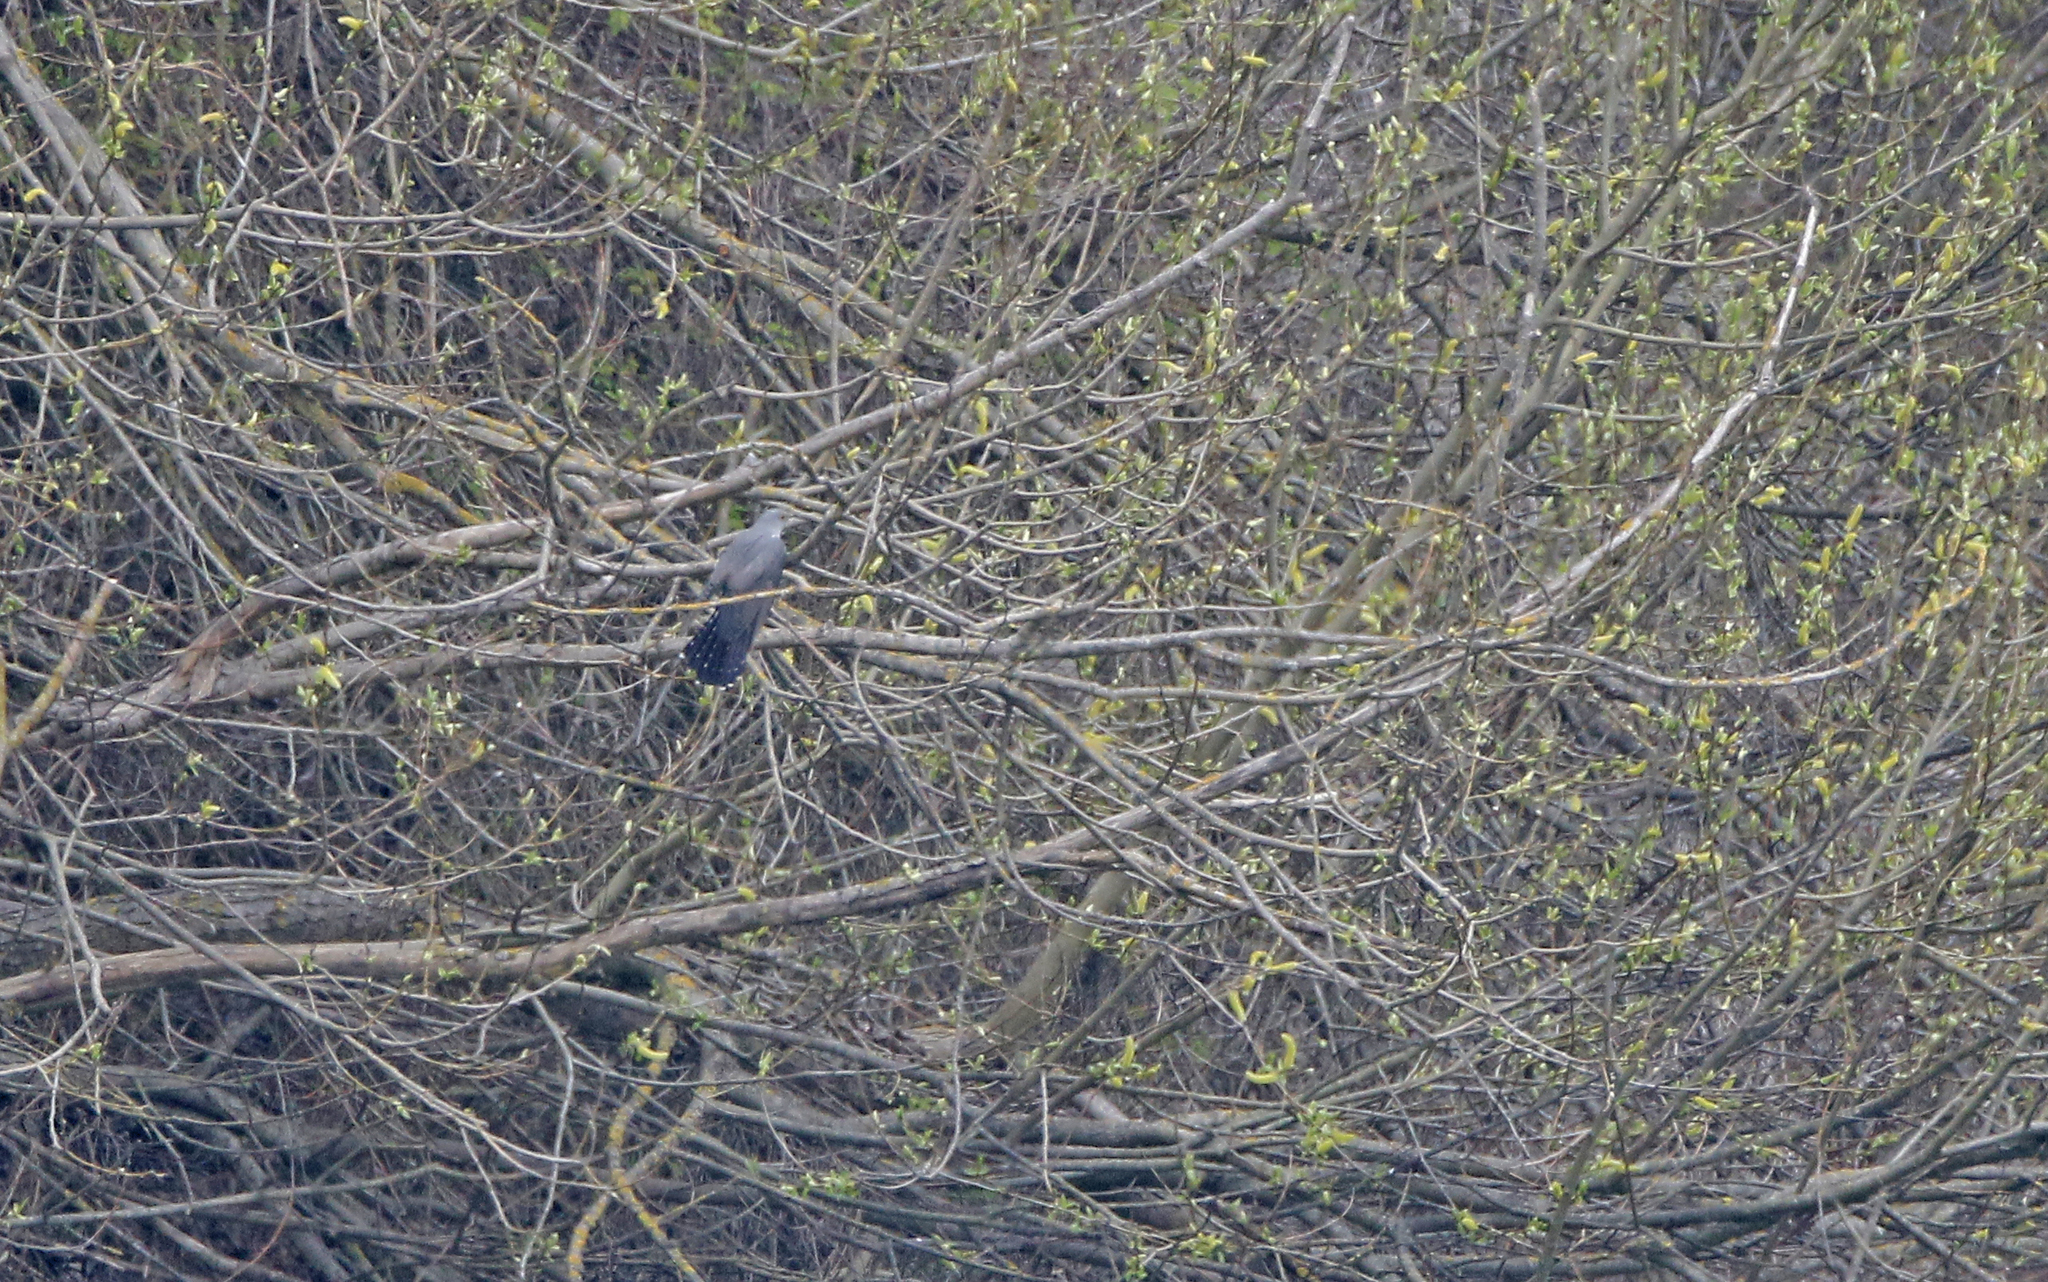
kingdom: Animalia
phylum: Chordata
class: Aves
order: Cuculiformes
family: Cuculidae
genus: Cuculus
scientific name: Cuculus canorus
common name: Common cuckoo
